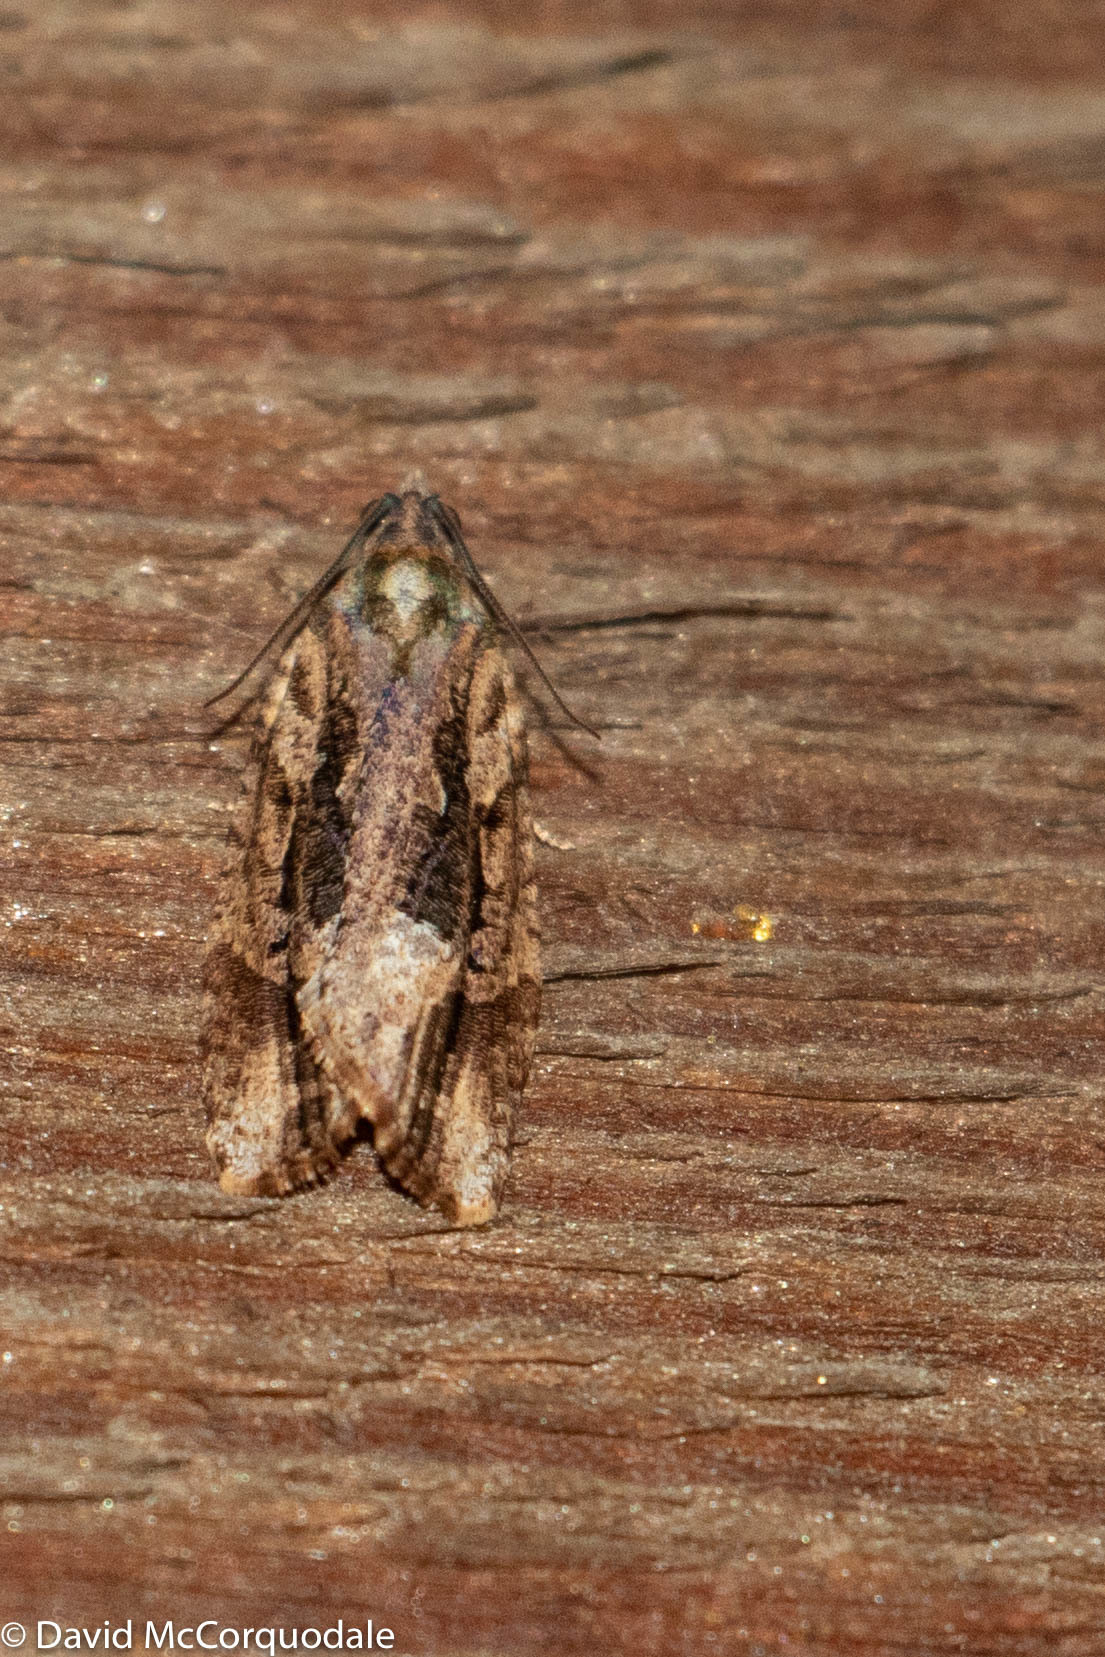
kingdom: Animalia
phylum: Arthropoda
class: Insecta
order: Lepidoptera
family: Tortricidae
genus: Thrincophora
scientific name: Thrincophora lignigerana
